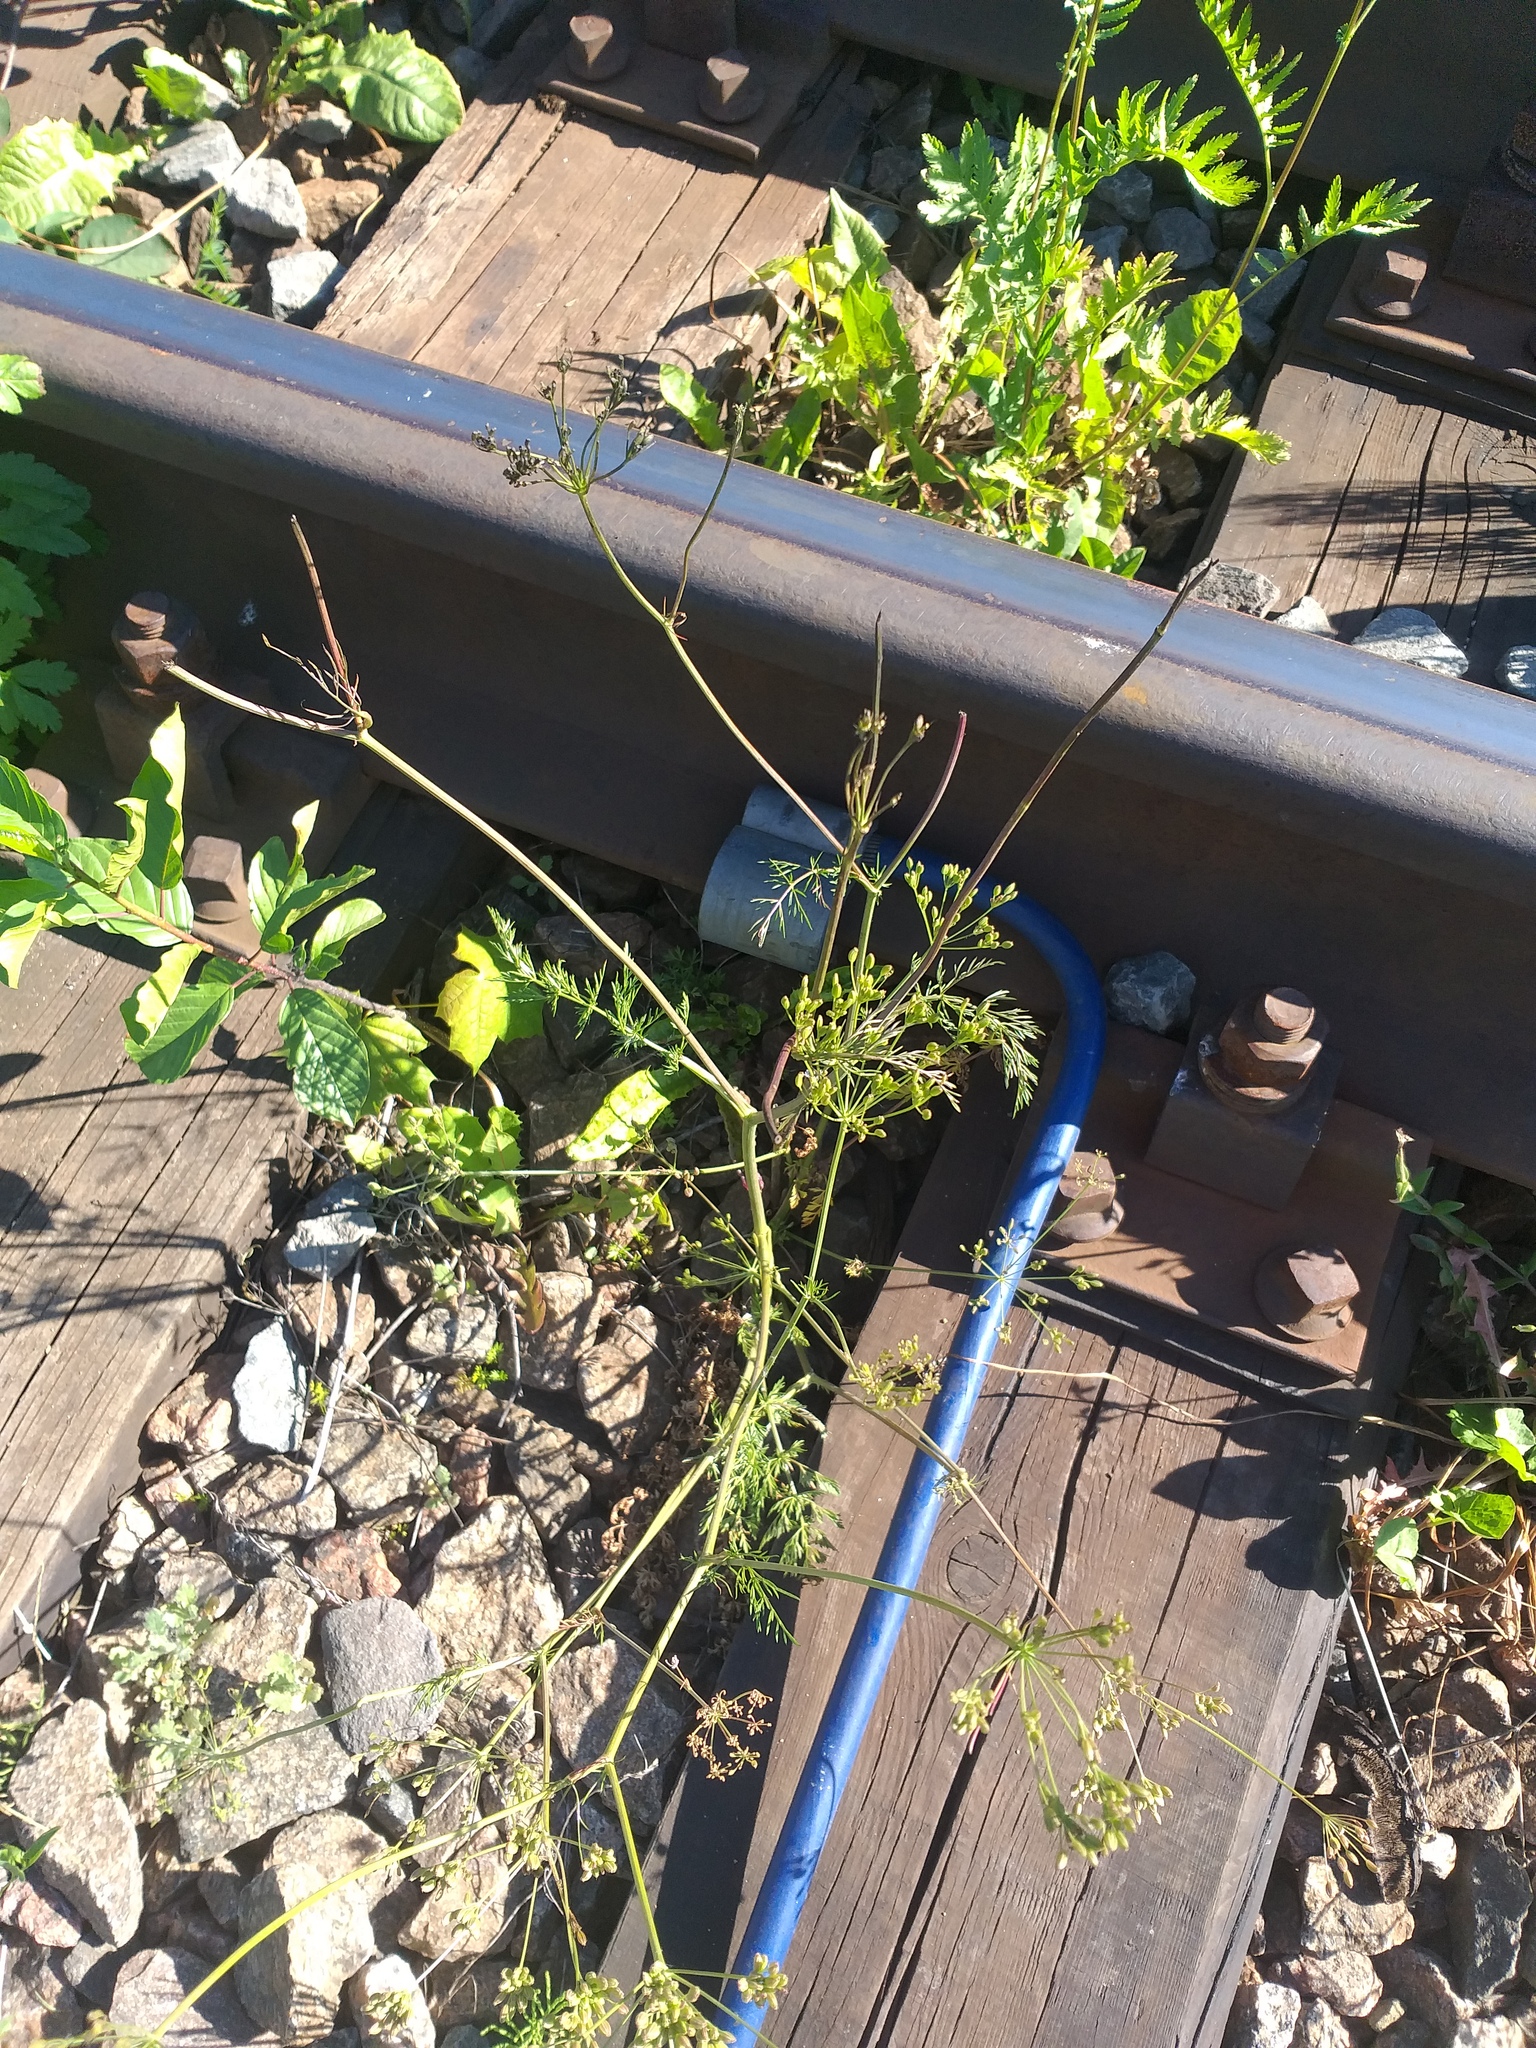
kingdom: Plantae
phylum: Tracheophyta
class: Magnoliopsida
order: Apiales
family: Apiaceae
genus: Carum
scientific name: Carum carvi
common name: Caraway
